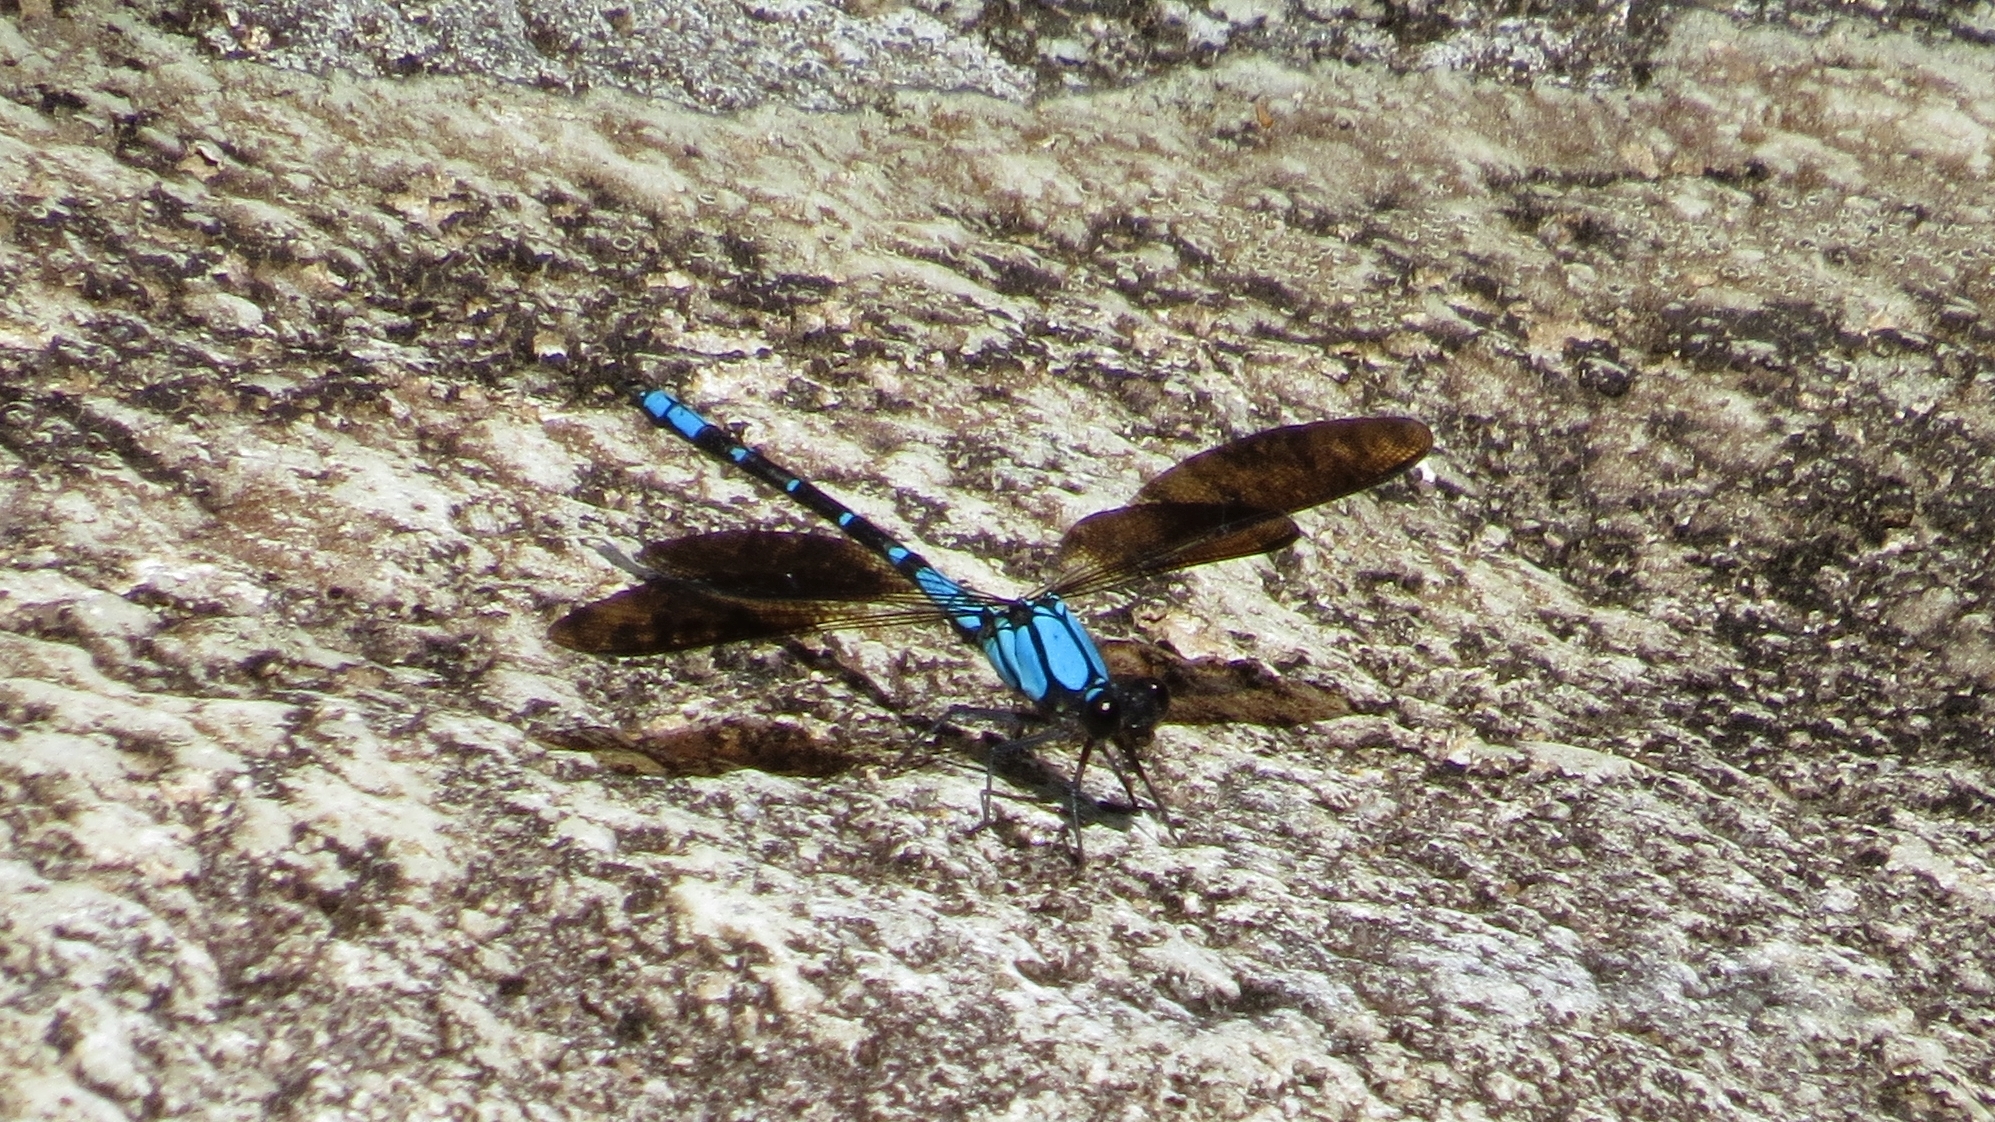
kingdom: Animalia
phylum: Arthropoda
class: Insecta
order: Odonata
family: Lestoideidae
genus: Diphlebia
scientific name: Diphlebia coerulescens
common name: Sapphire rockmaster
